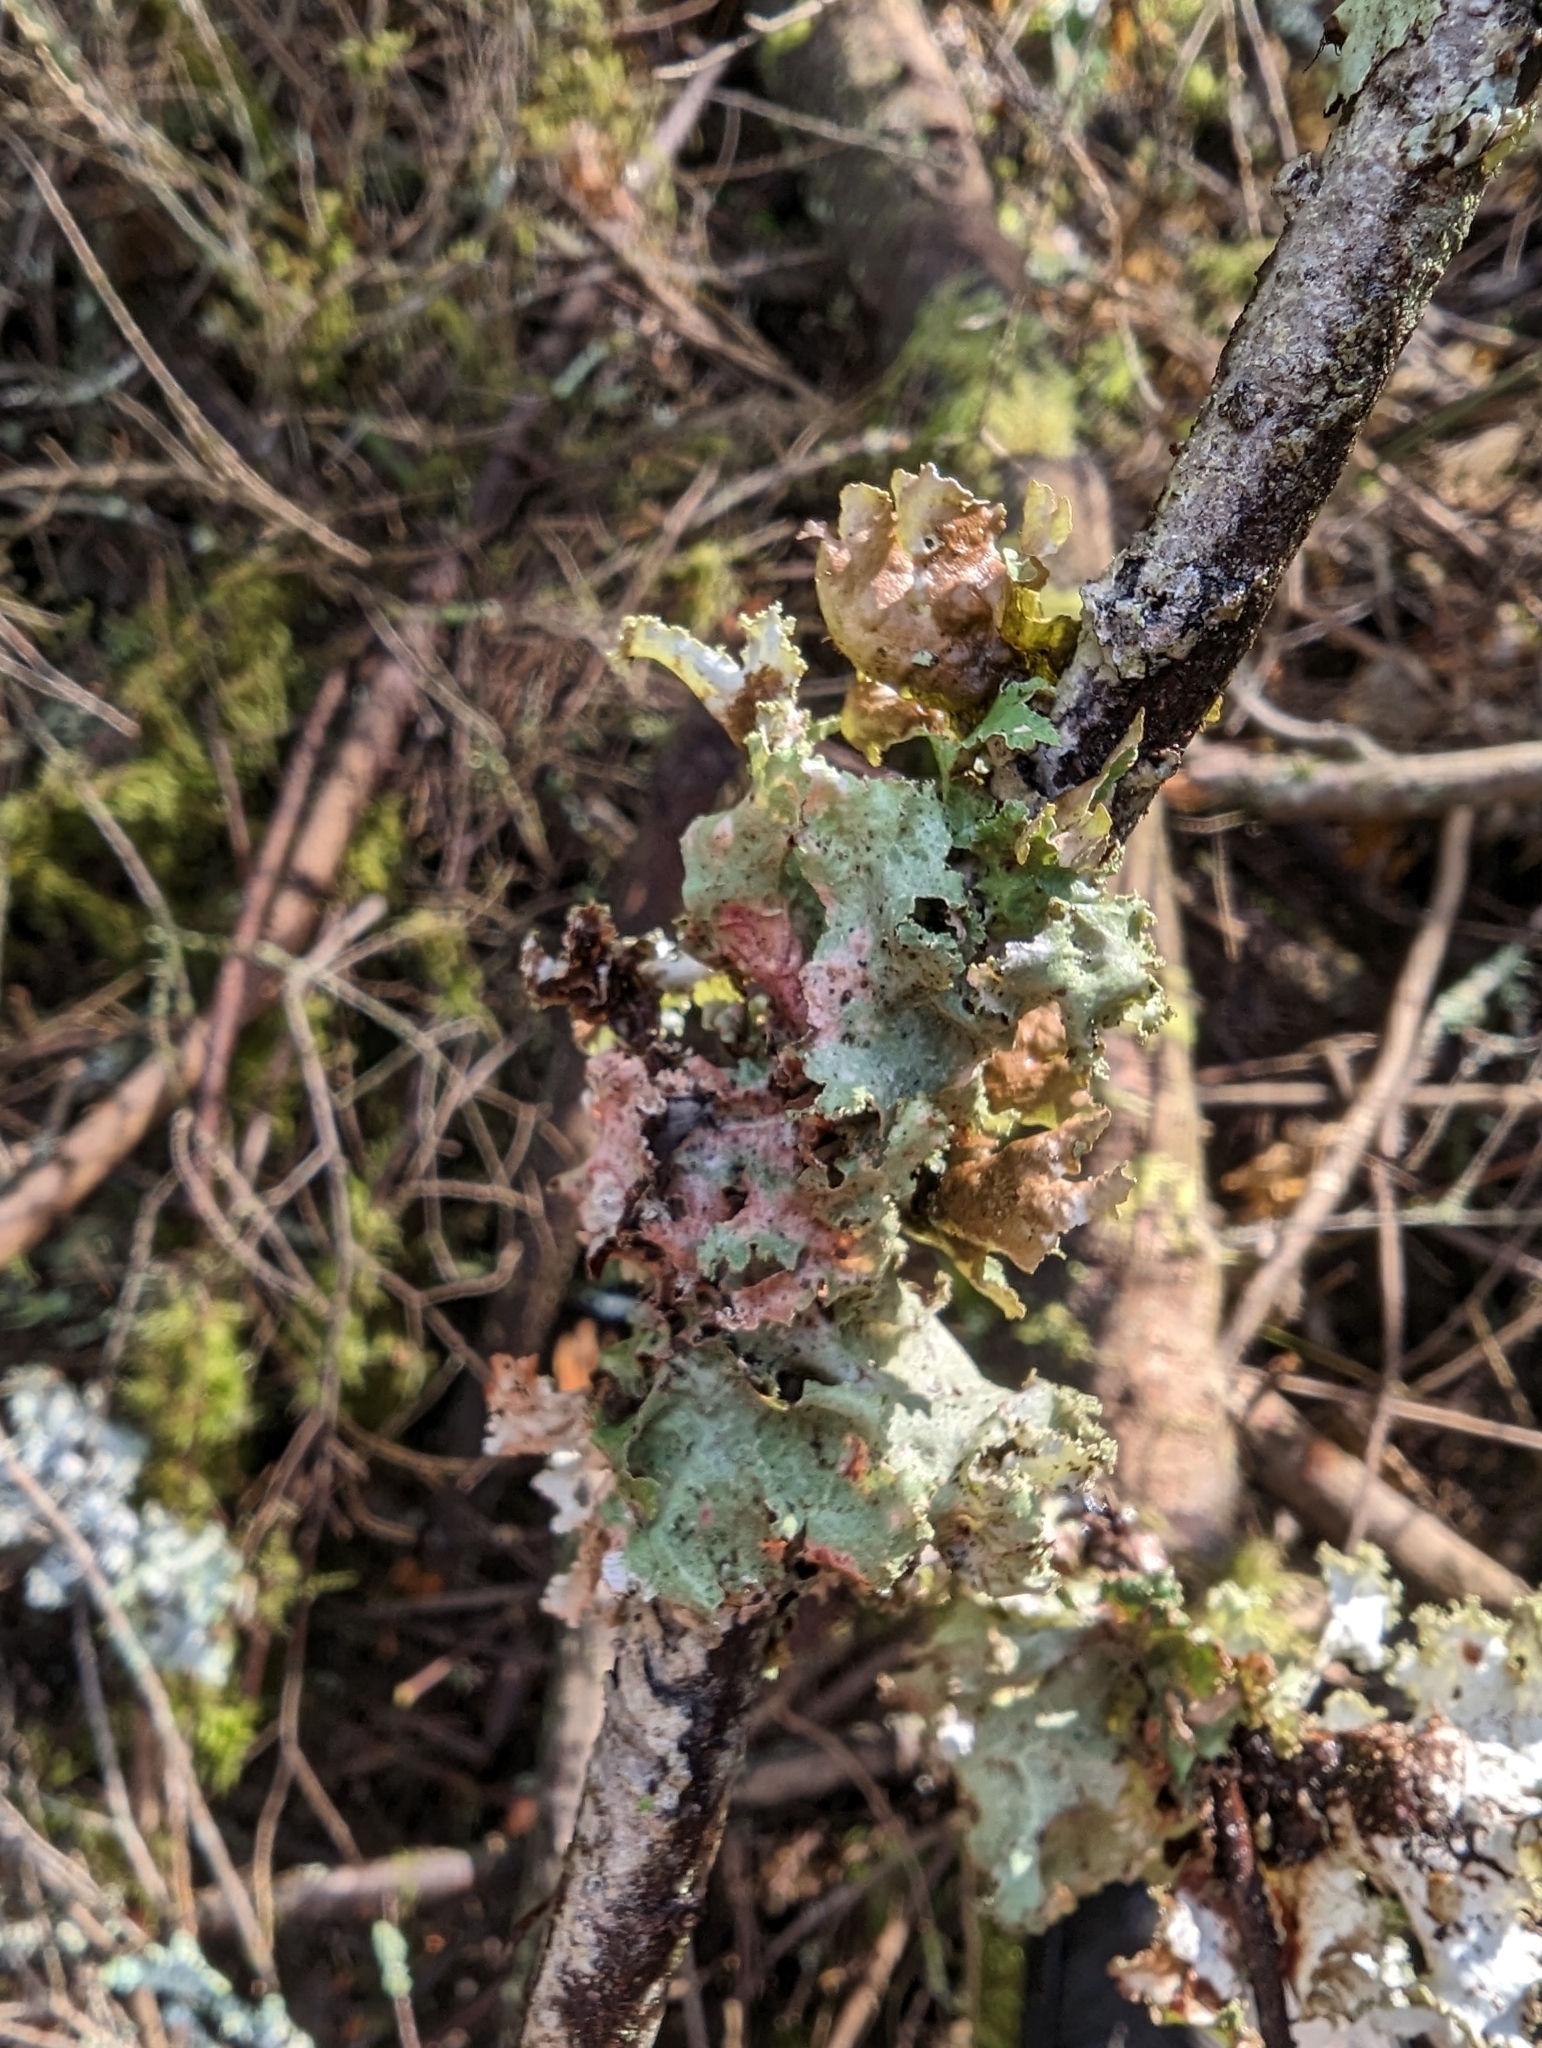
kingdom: Fungi
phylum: Ascomycota
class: Lecanoromycetes
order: Lecanorales
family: Parmeliaceae
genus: Platismatia
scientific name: Platismatia glauca
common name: Varied rag lichen
